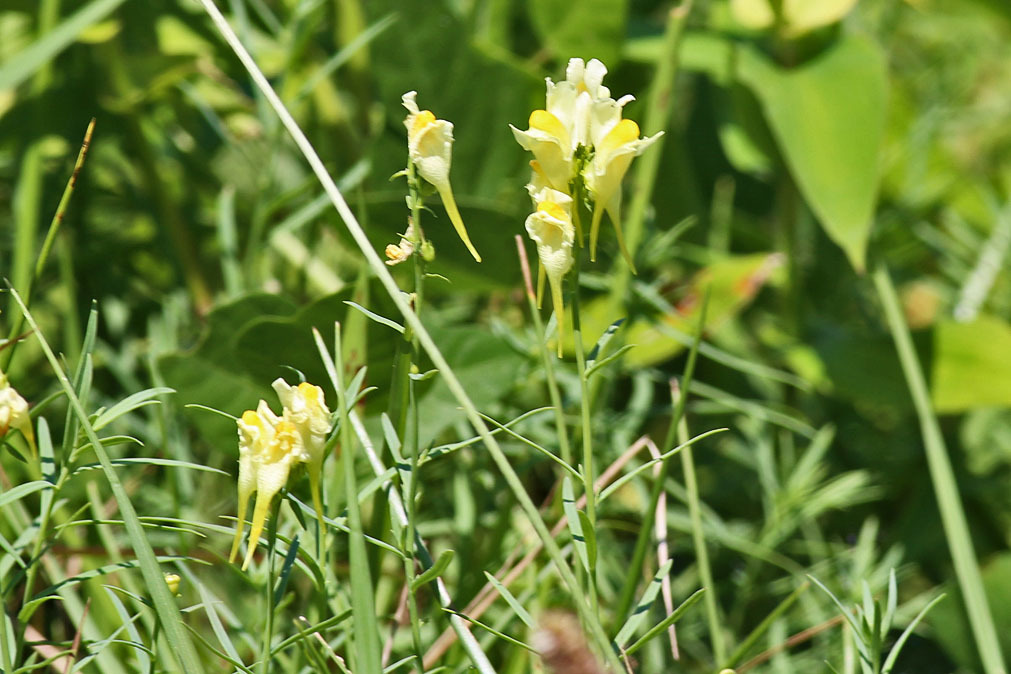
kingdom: Plantae
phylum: Tracheophyta
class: Magnoliopsida
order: Lamiales
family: Plantaginaceae
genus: Linaria
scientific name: Linaria vulgaris
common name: Butter and eggs
